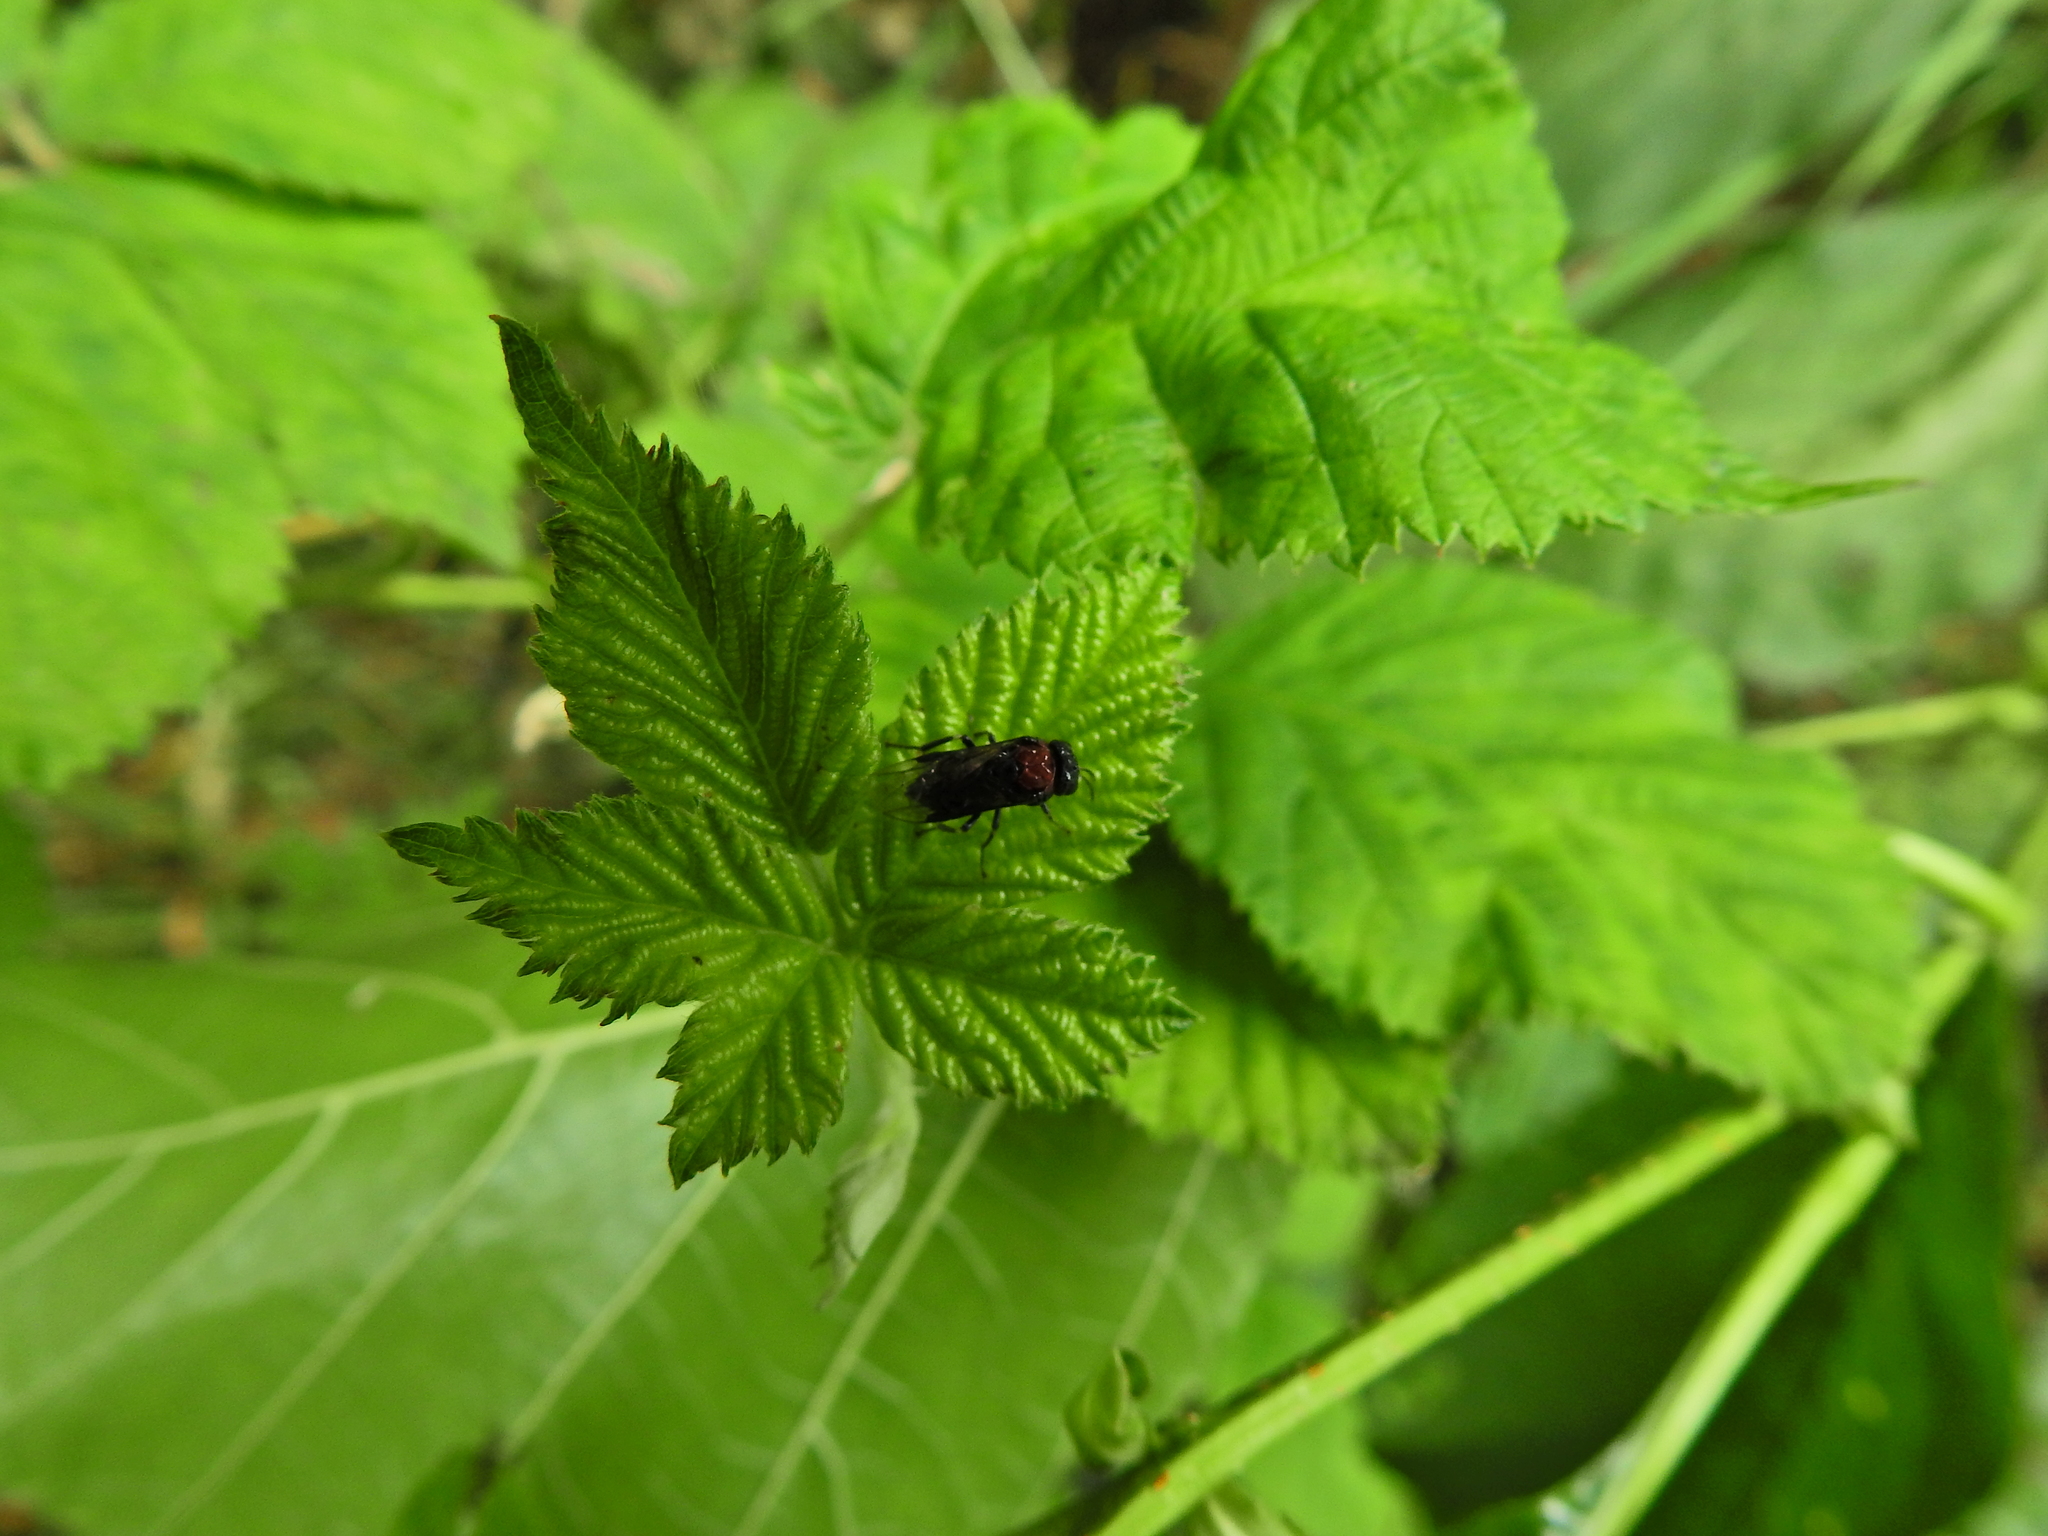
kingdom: Animalia
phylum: Arthropoda
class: Insecta
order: Hymenoptera
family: Tenthredinidae
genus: Eriocampa
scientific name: Eriocampa ovata
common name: Alder wooly sawfly
